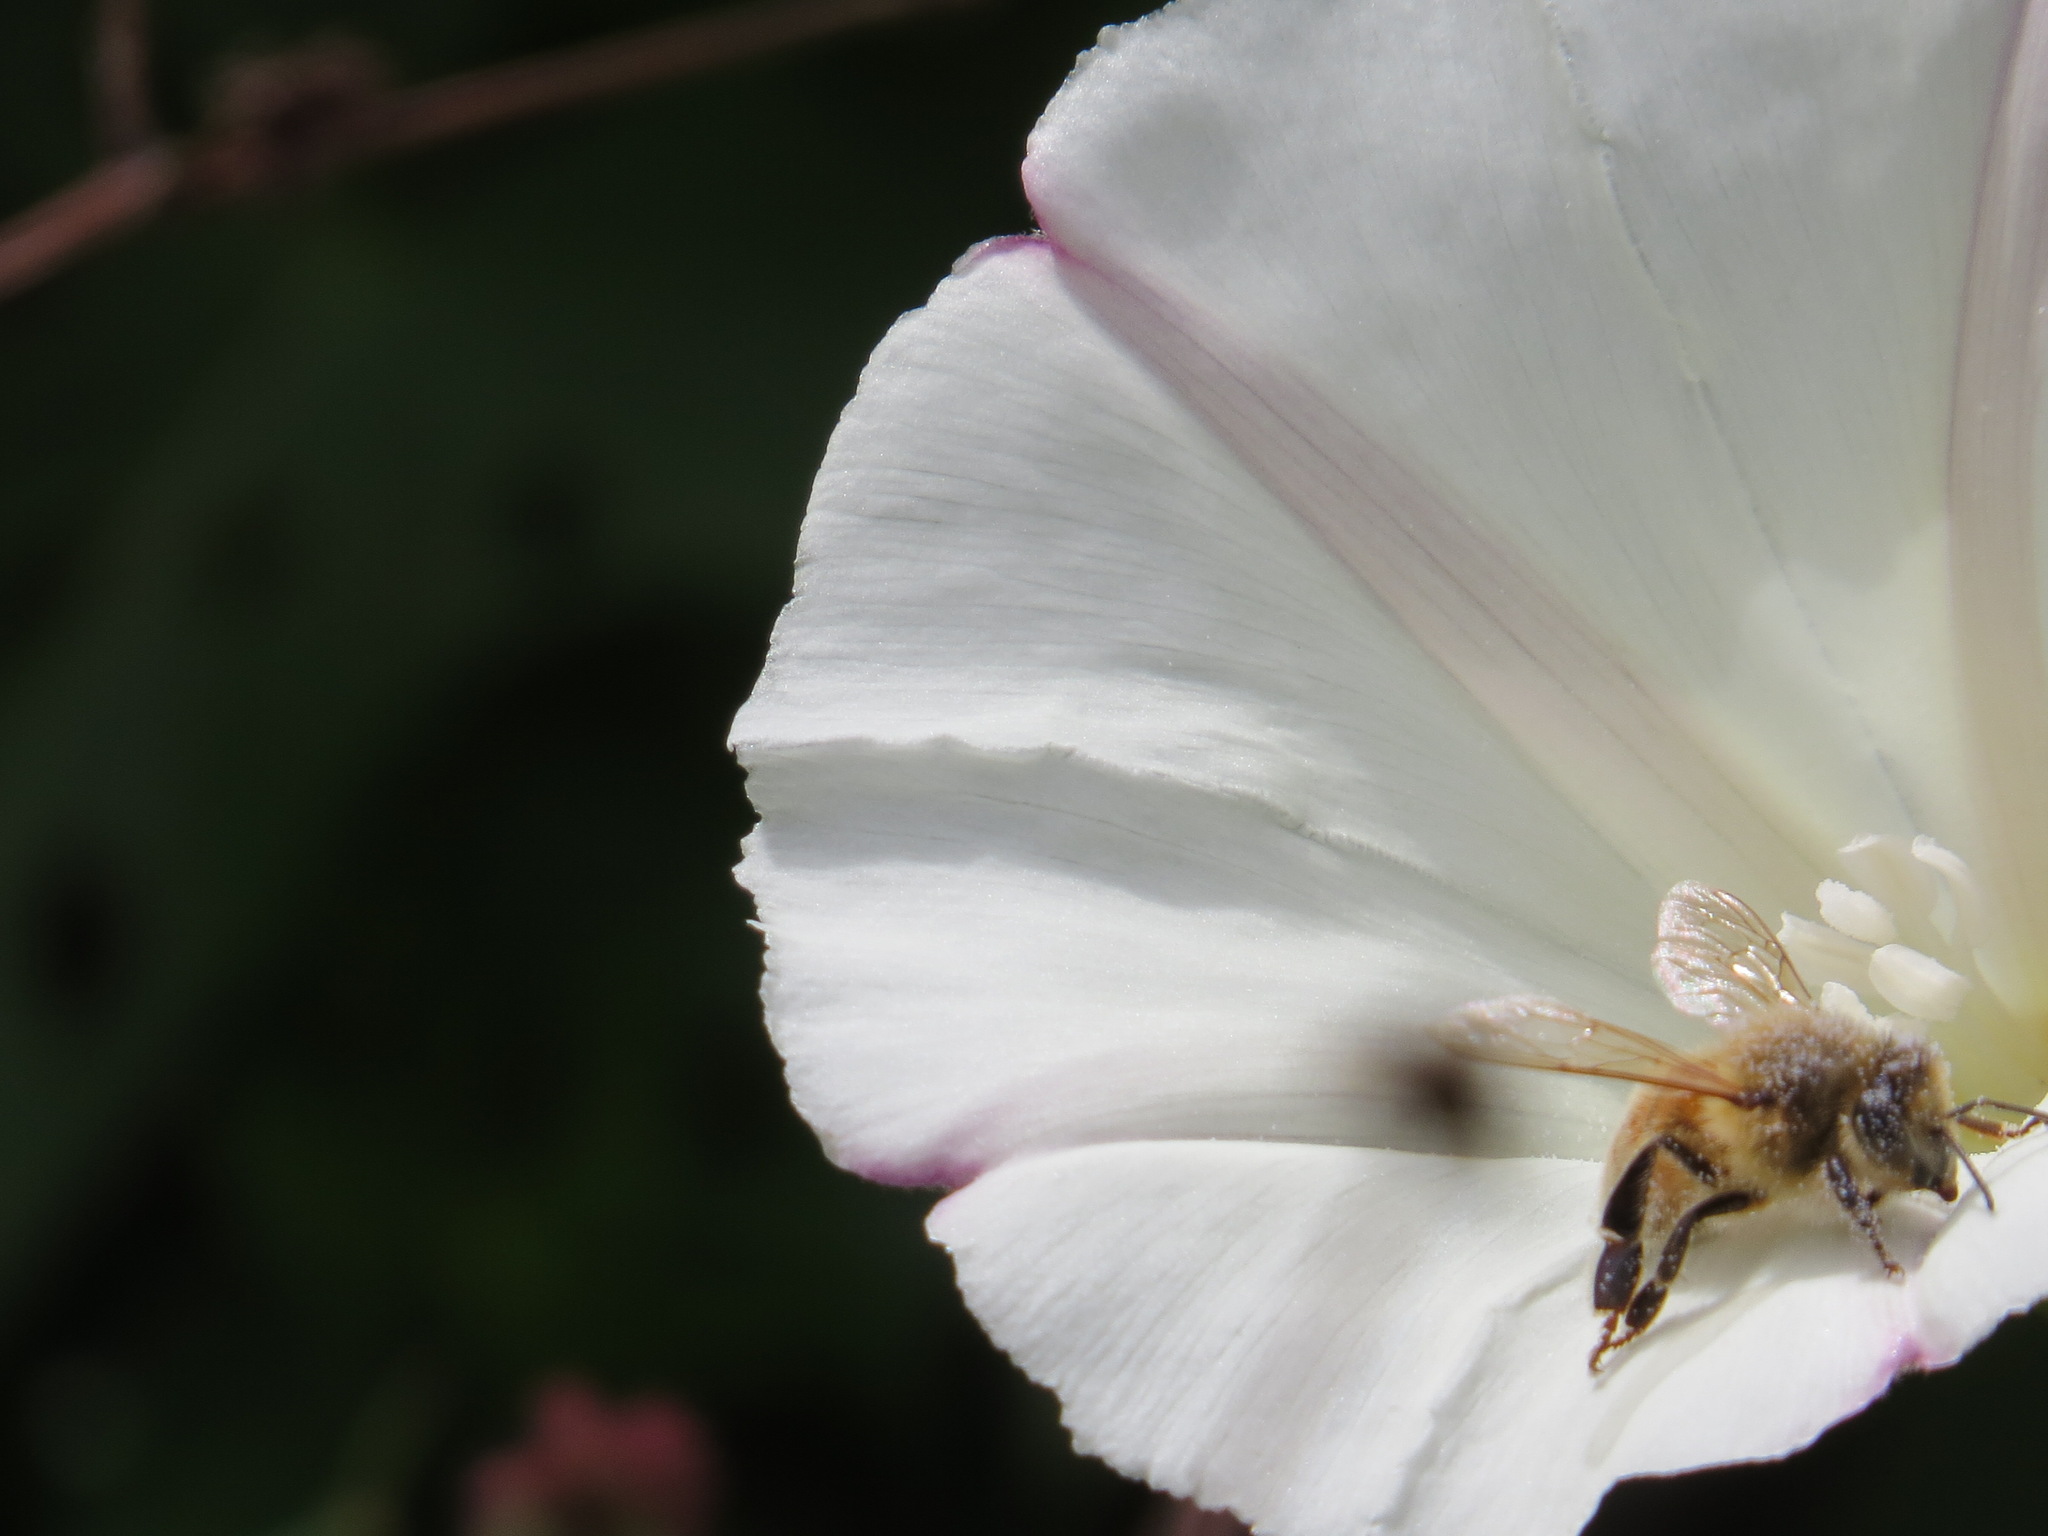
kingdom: Animalia
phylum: Arthropoda
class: Insecta
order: Hymenoptera
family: Apidae
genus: Apis
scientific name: Apis mellifera
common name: Honey bee
